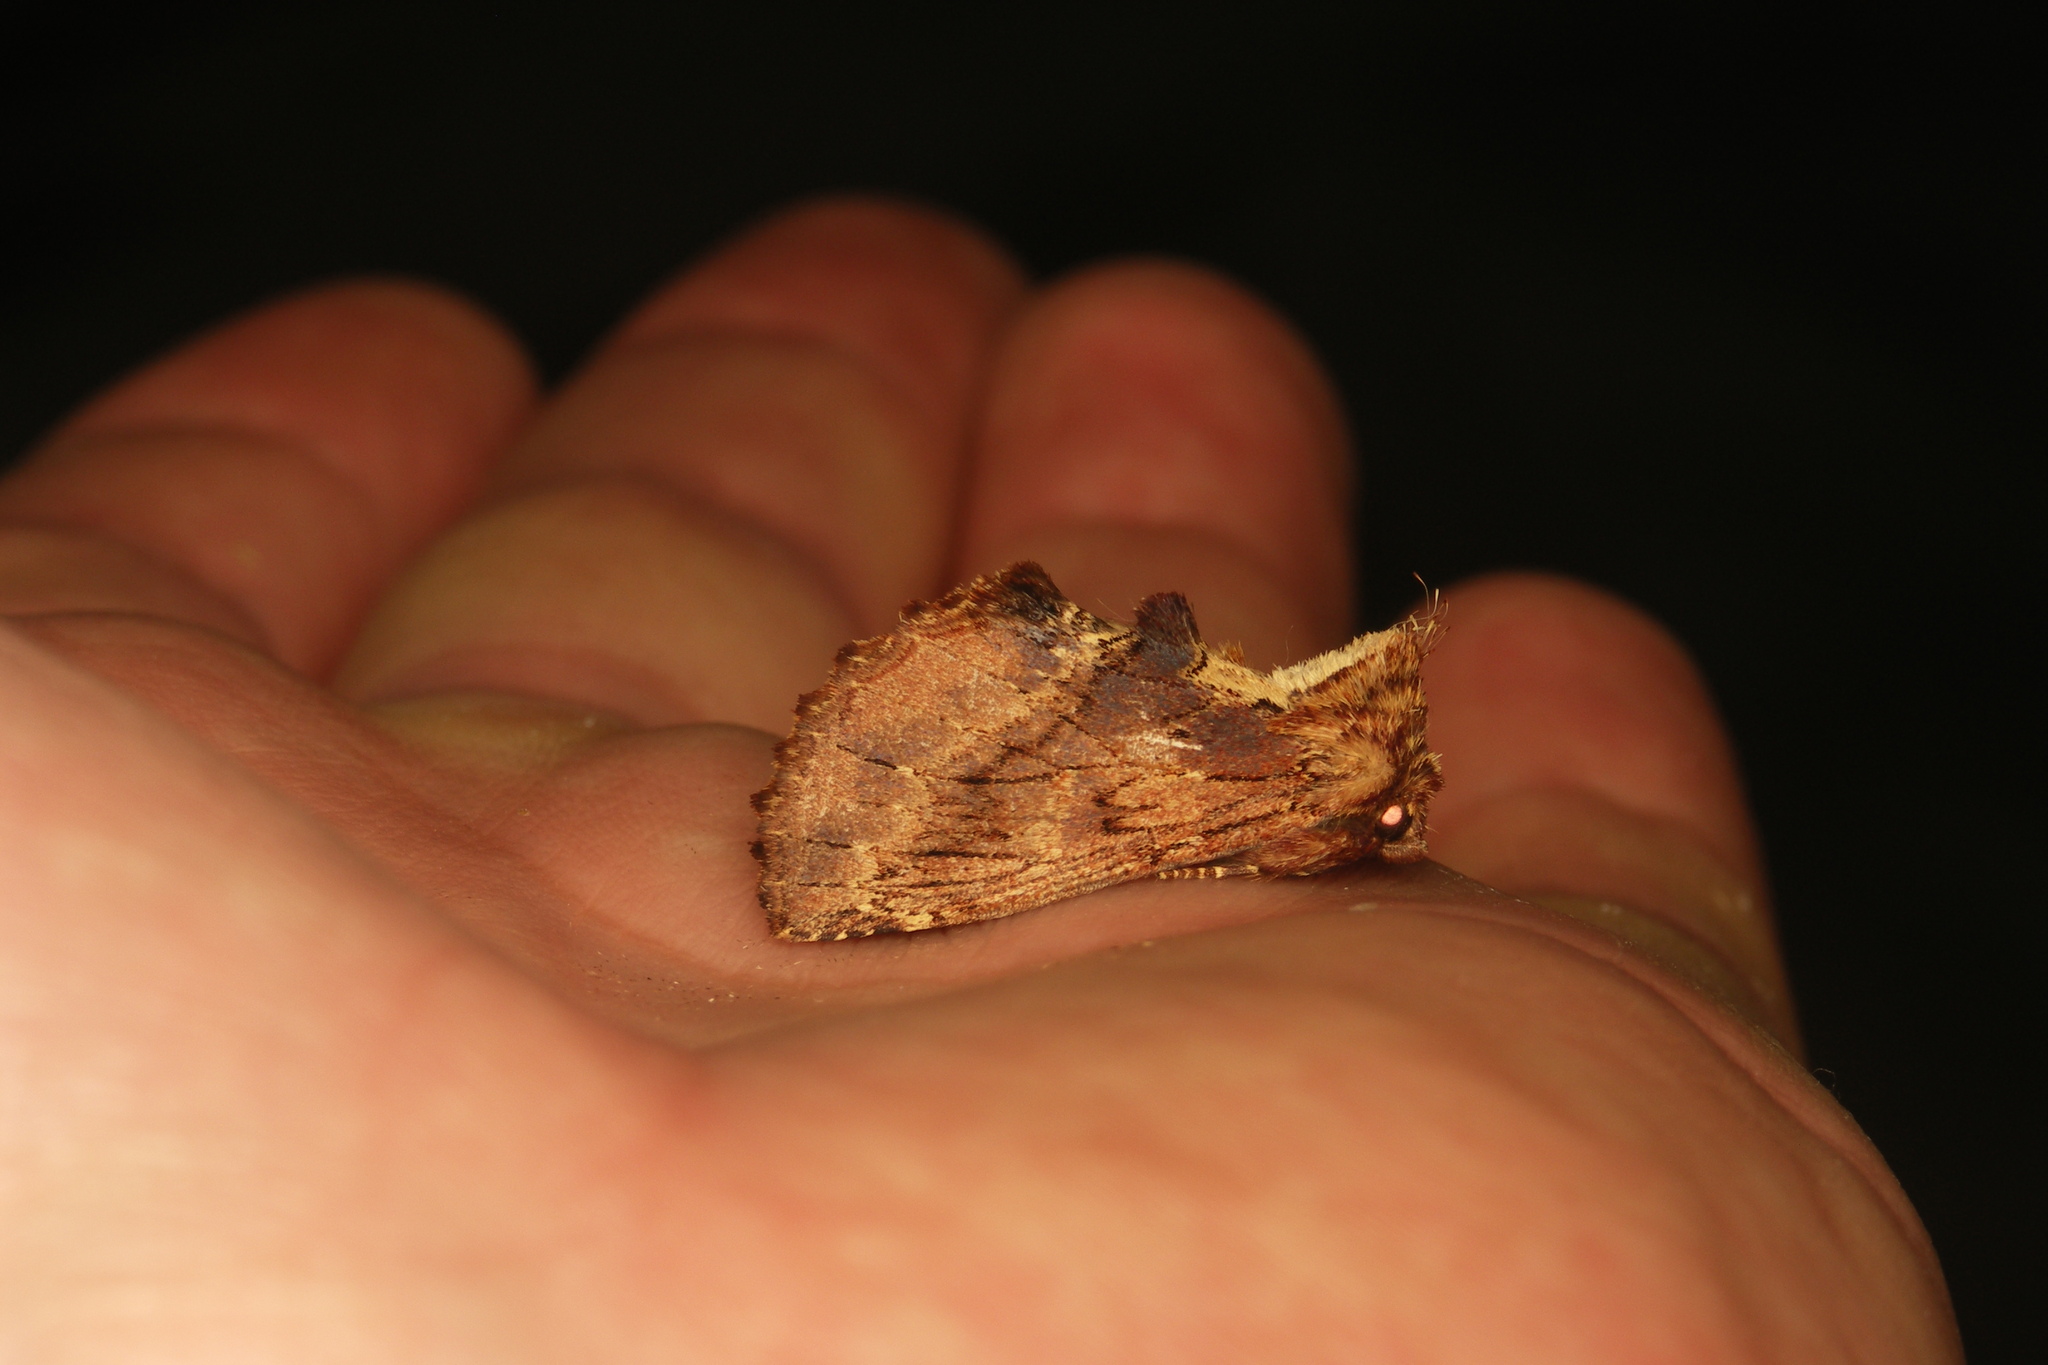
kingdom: Animalia
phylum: Arthropoda
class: Insecta
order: Lepidoptera
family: Notodontidae
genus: Ptilodon
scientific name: Ptilodon capucina
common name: Coxcomb prominent
